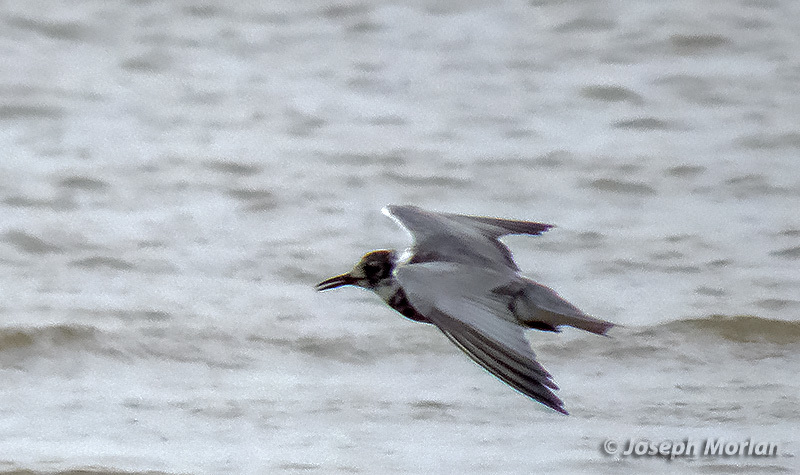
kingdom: Animalia
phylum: Chordata
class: Aves
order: Charadriiformes
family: Laridae
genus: Chlidonias
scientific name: Chlidonias niger
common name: Black tern
